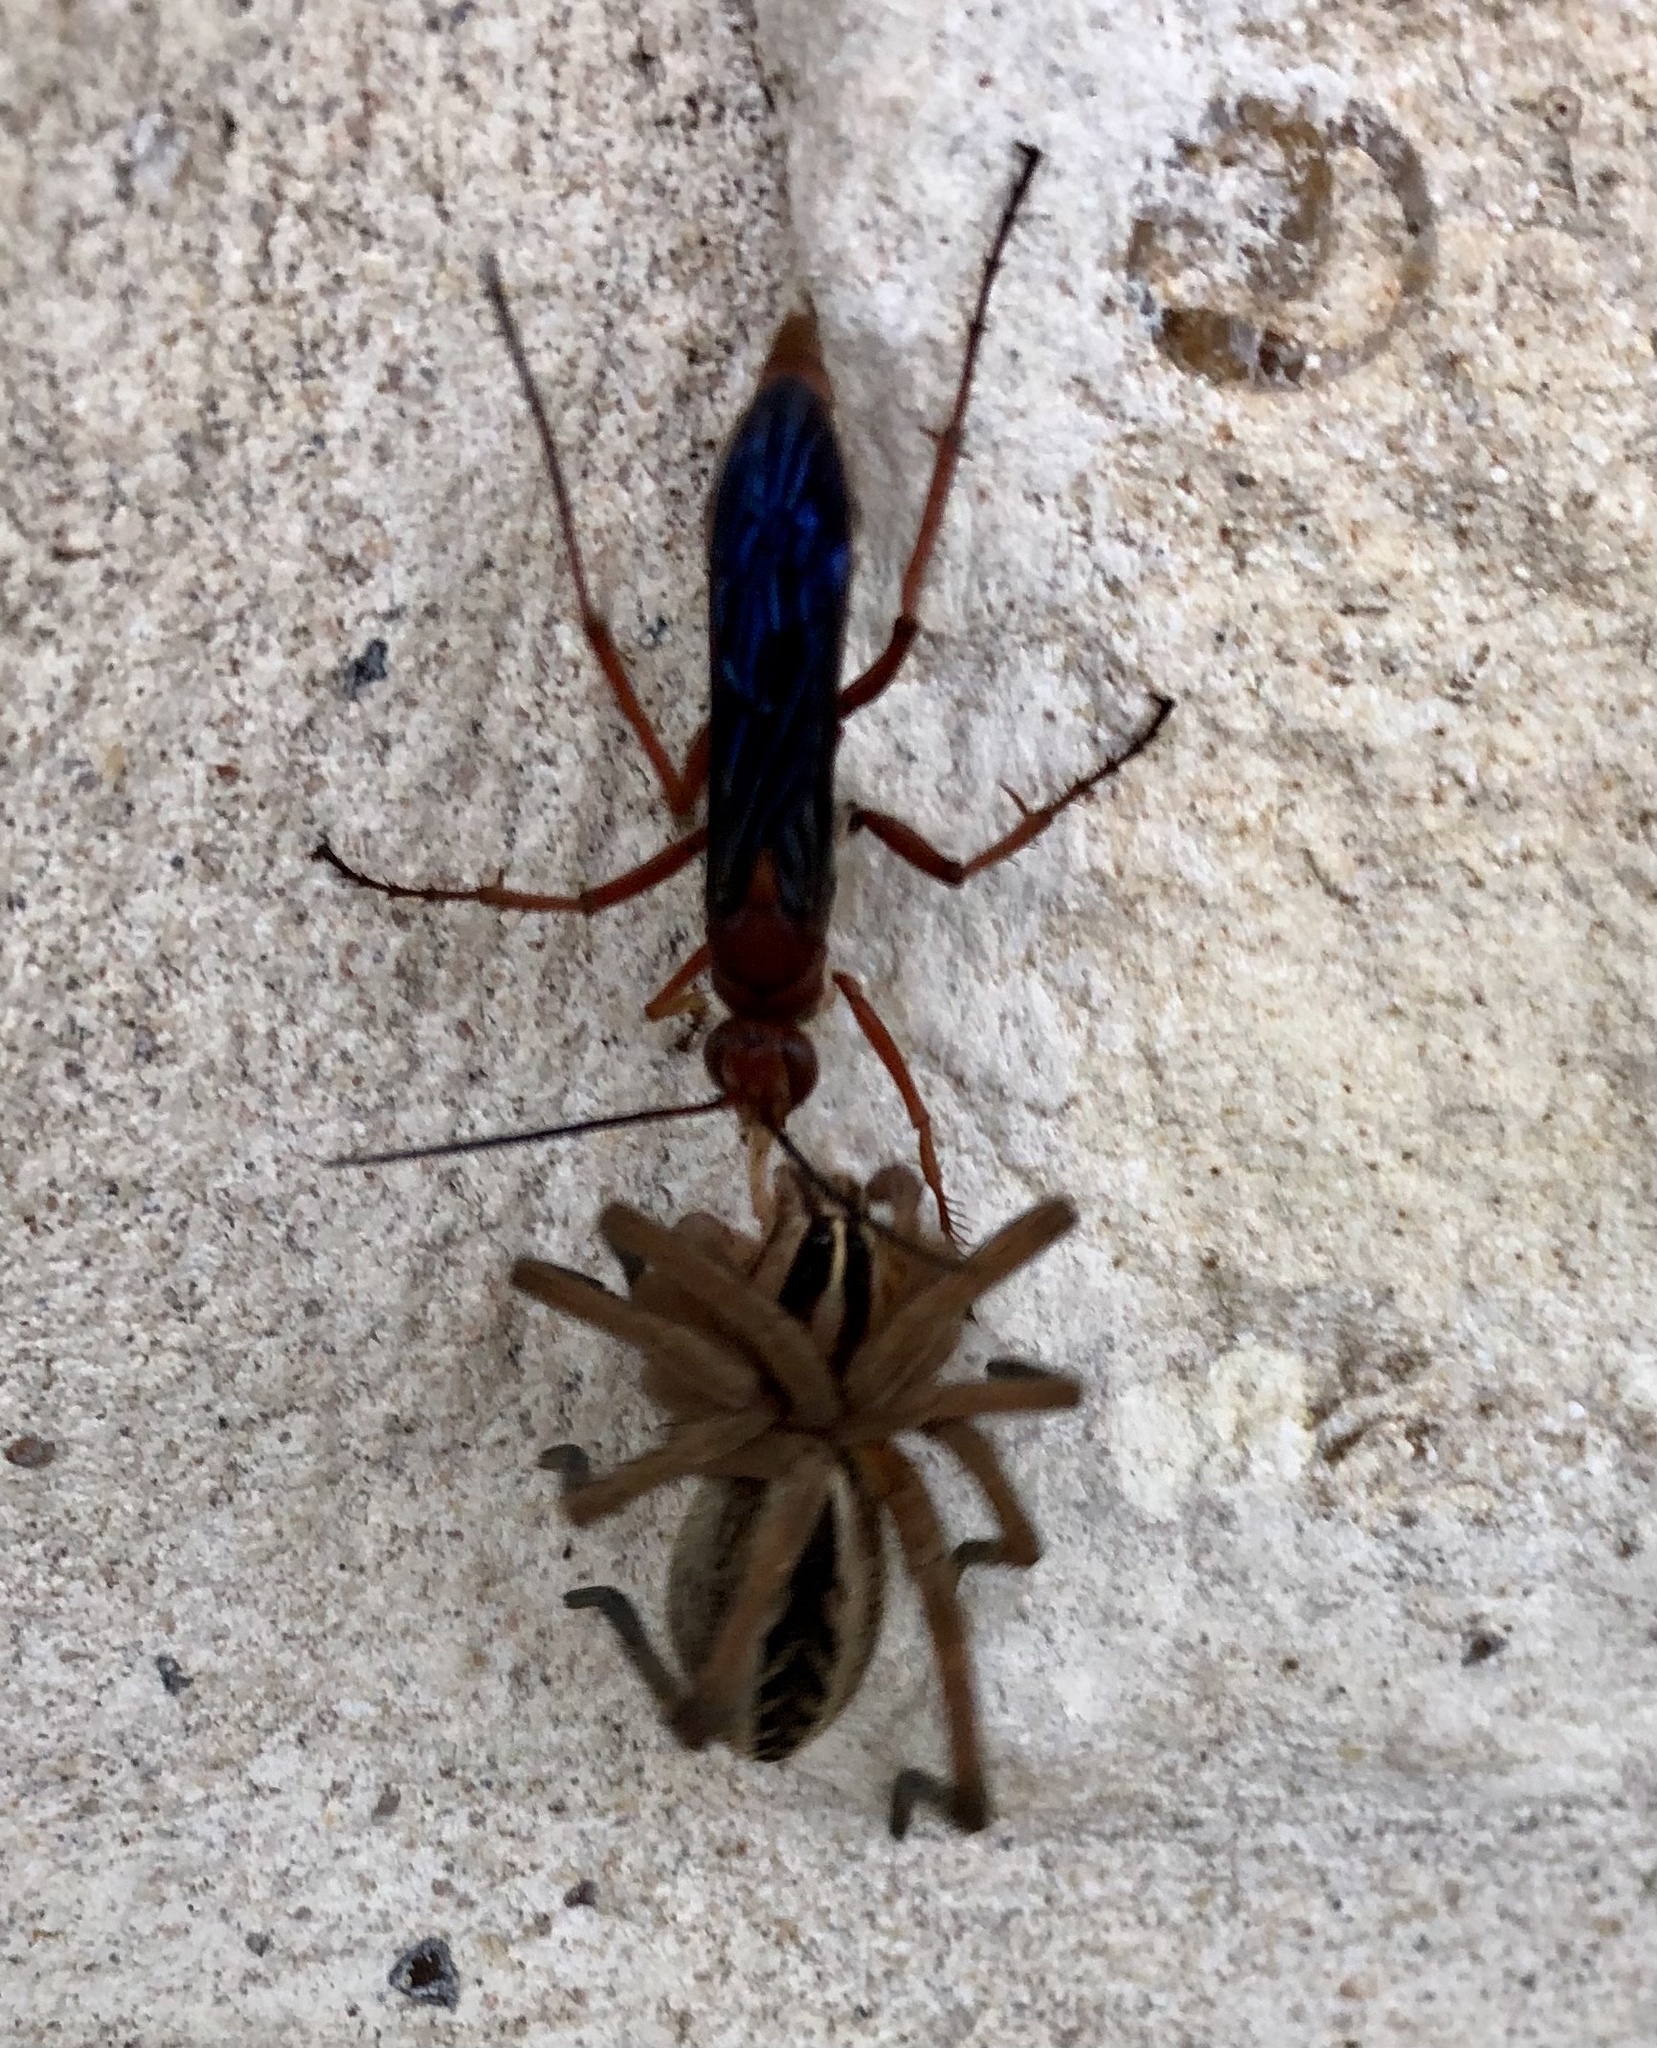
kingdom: Animalia
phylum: Arthropoda
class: Insecta
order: Hymenoptera
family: Pompilidae
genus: Tachypompilus
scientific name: Tachypompilus ferrugineus
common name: Rusty spider wasp
